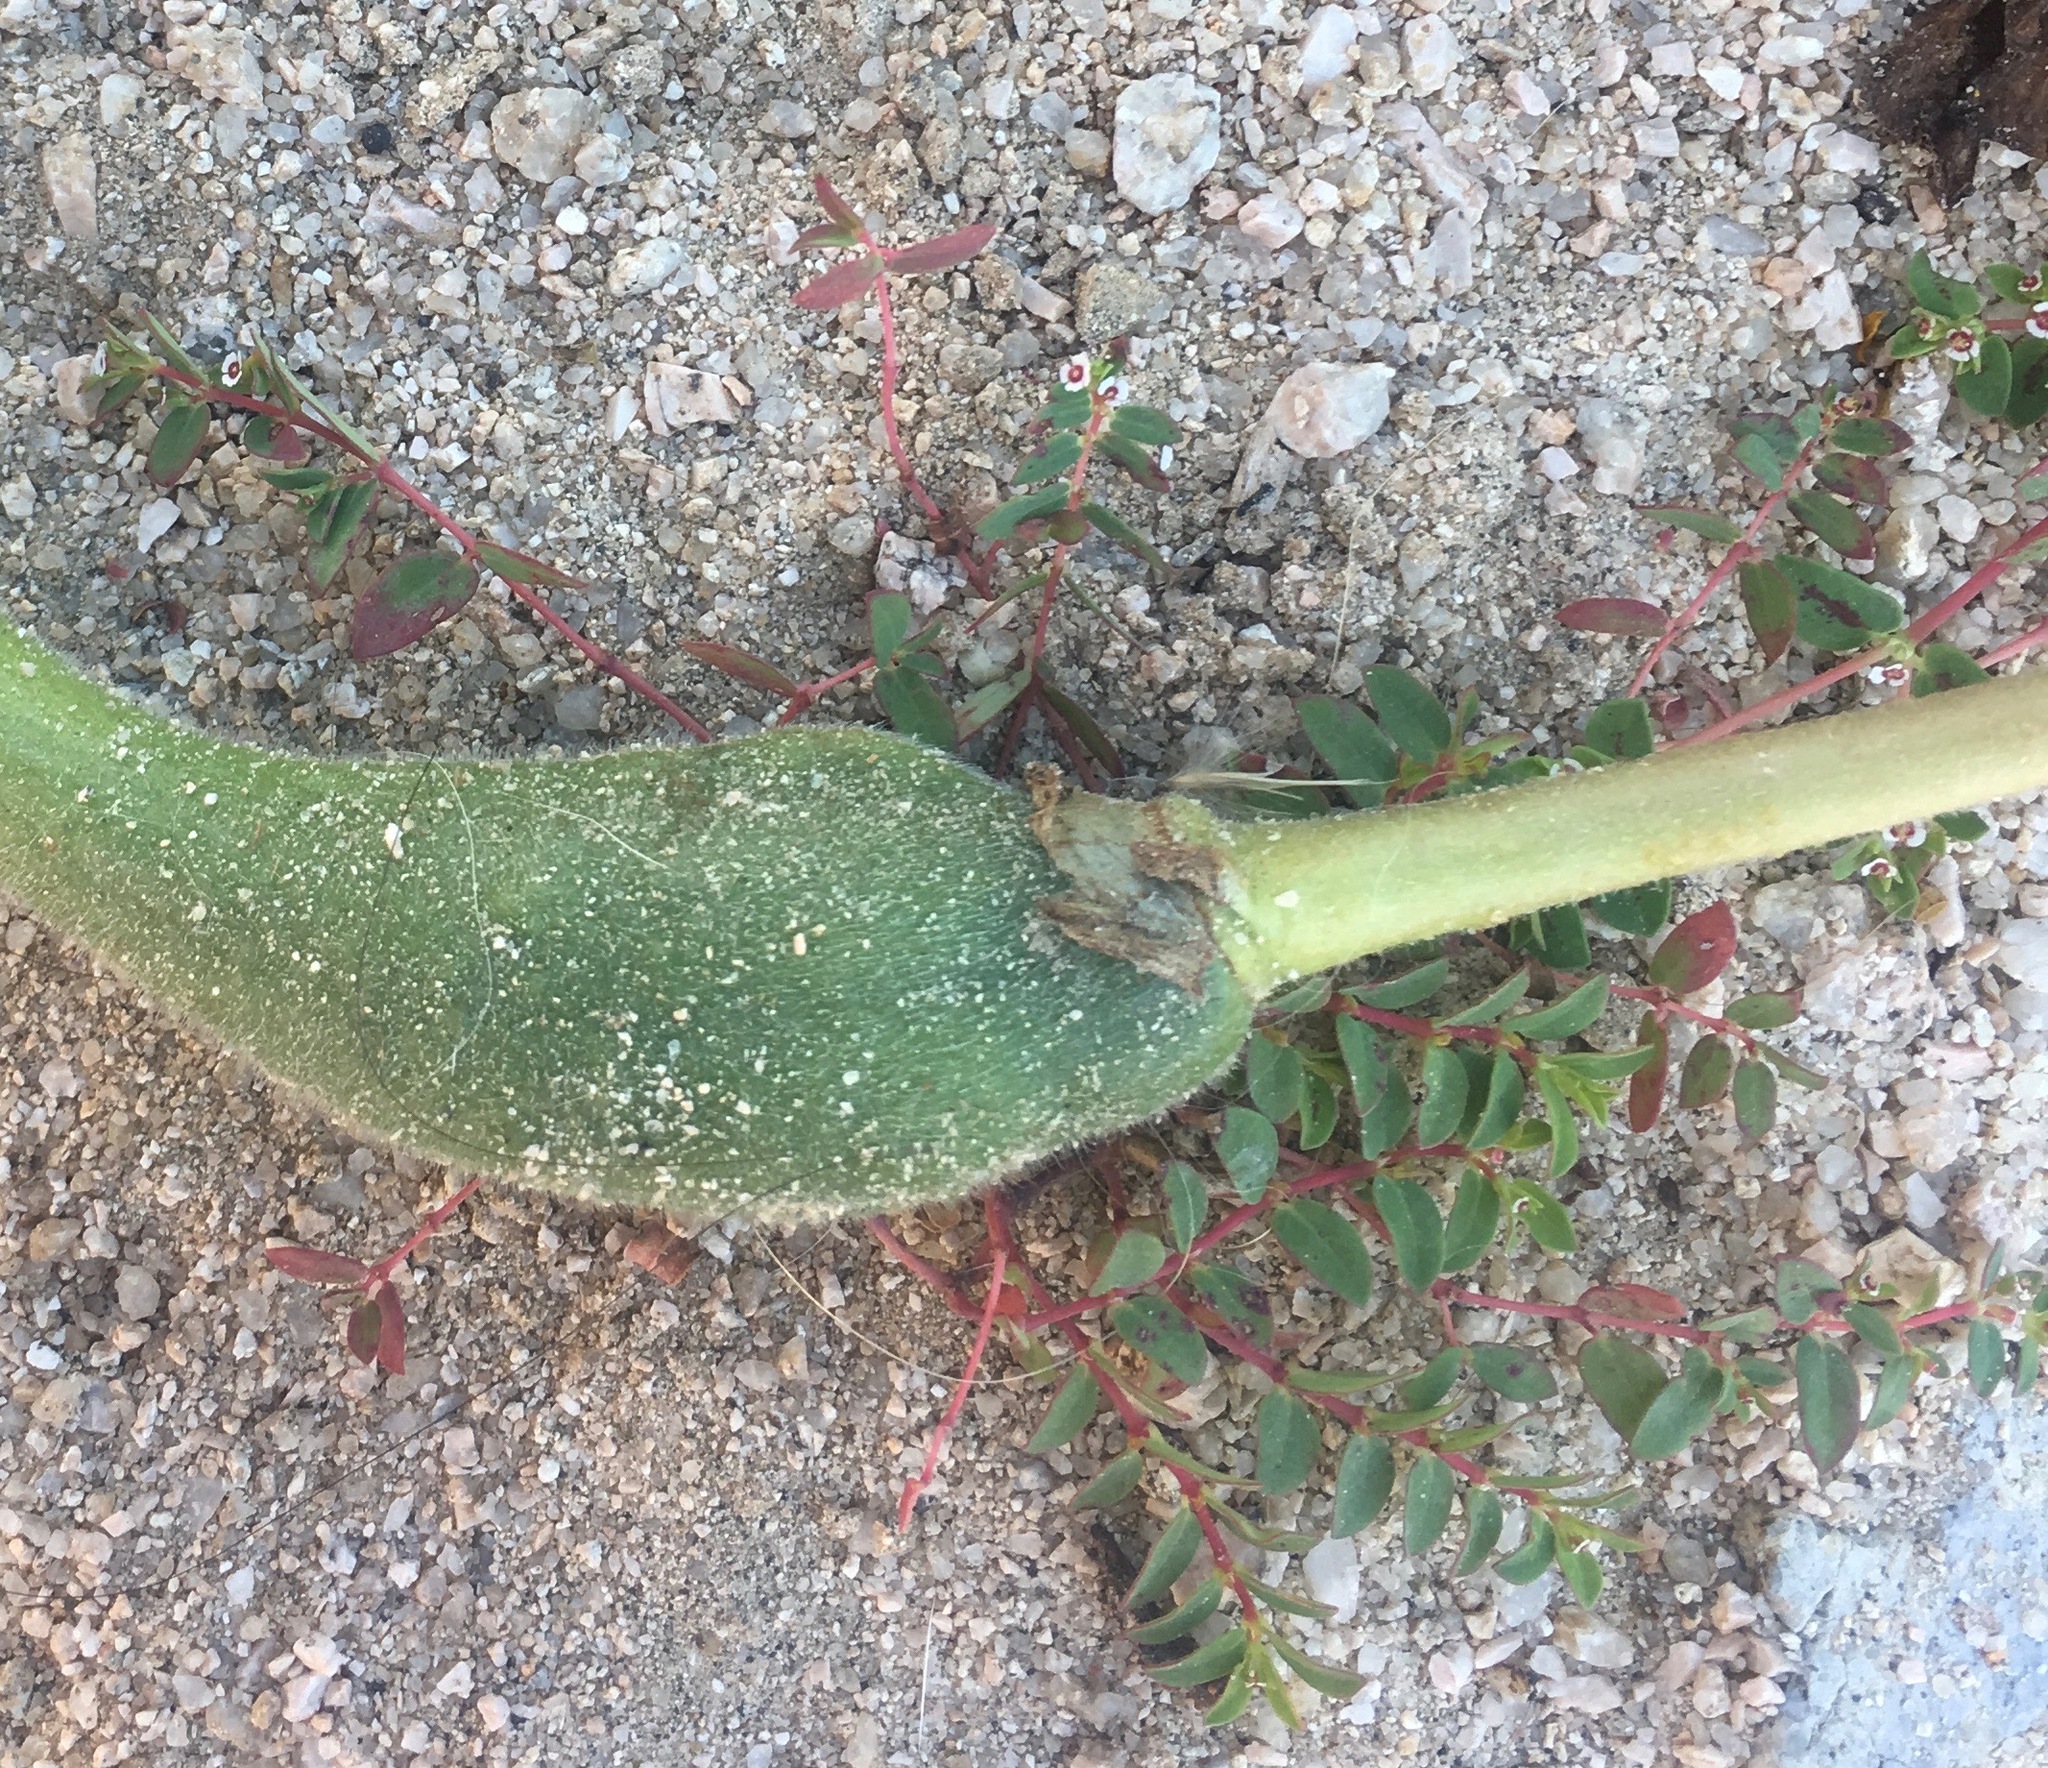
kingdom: Plantae
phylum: Tracheophyta
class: Magnoliopsida
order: Malpighiales
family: Euphorbiaceae
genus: Euphorbia
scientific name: Euphorbia polycarpa
